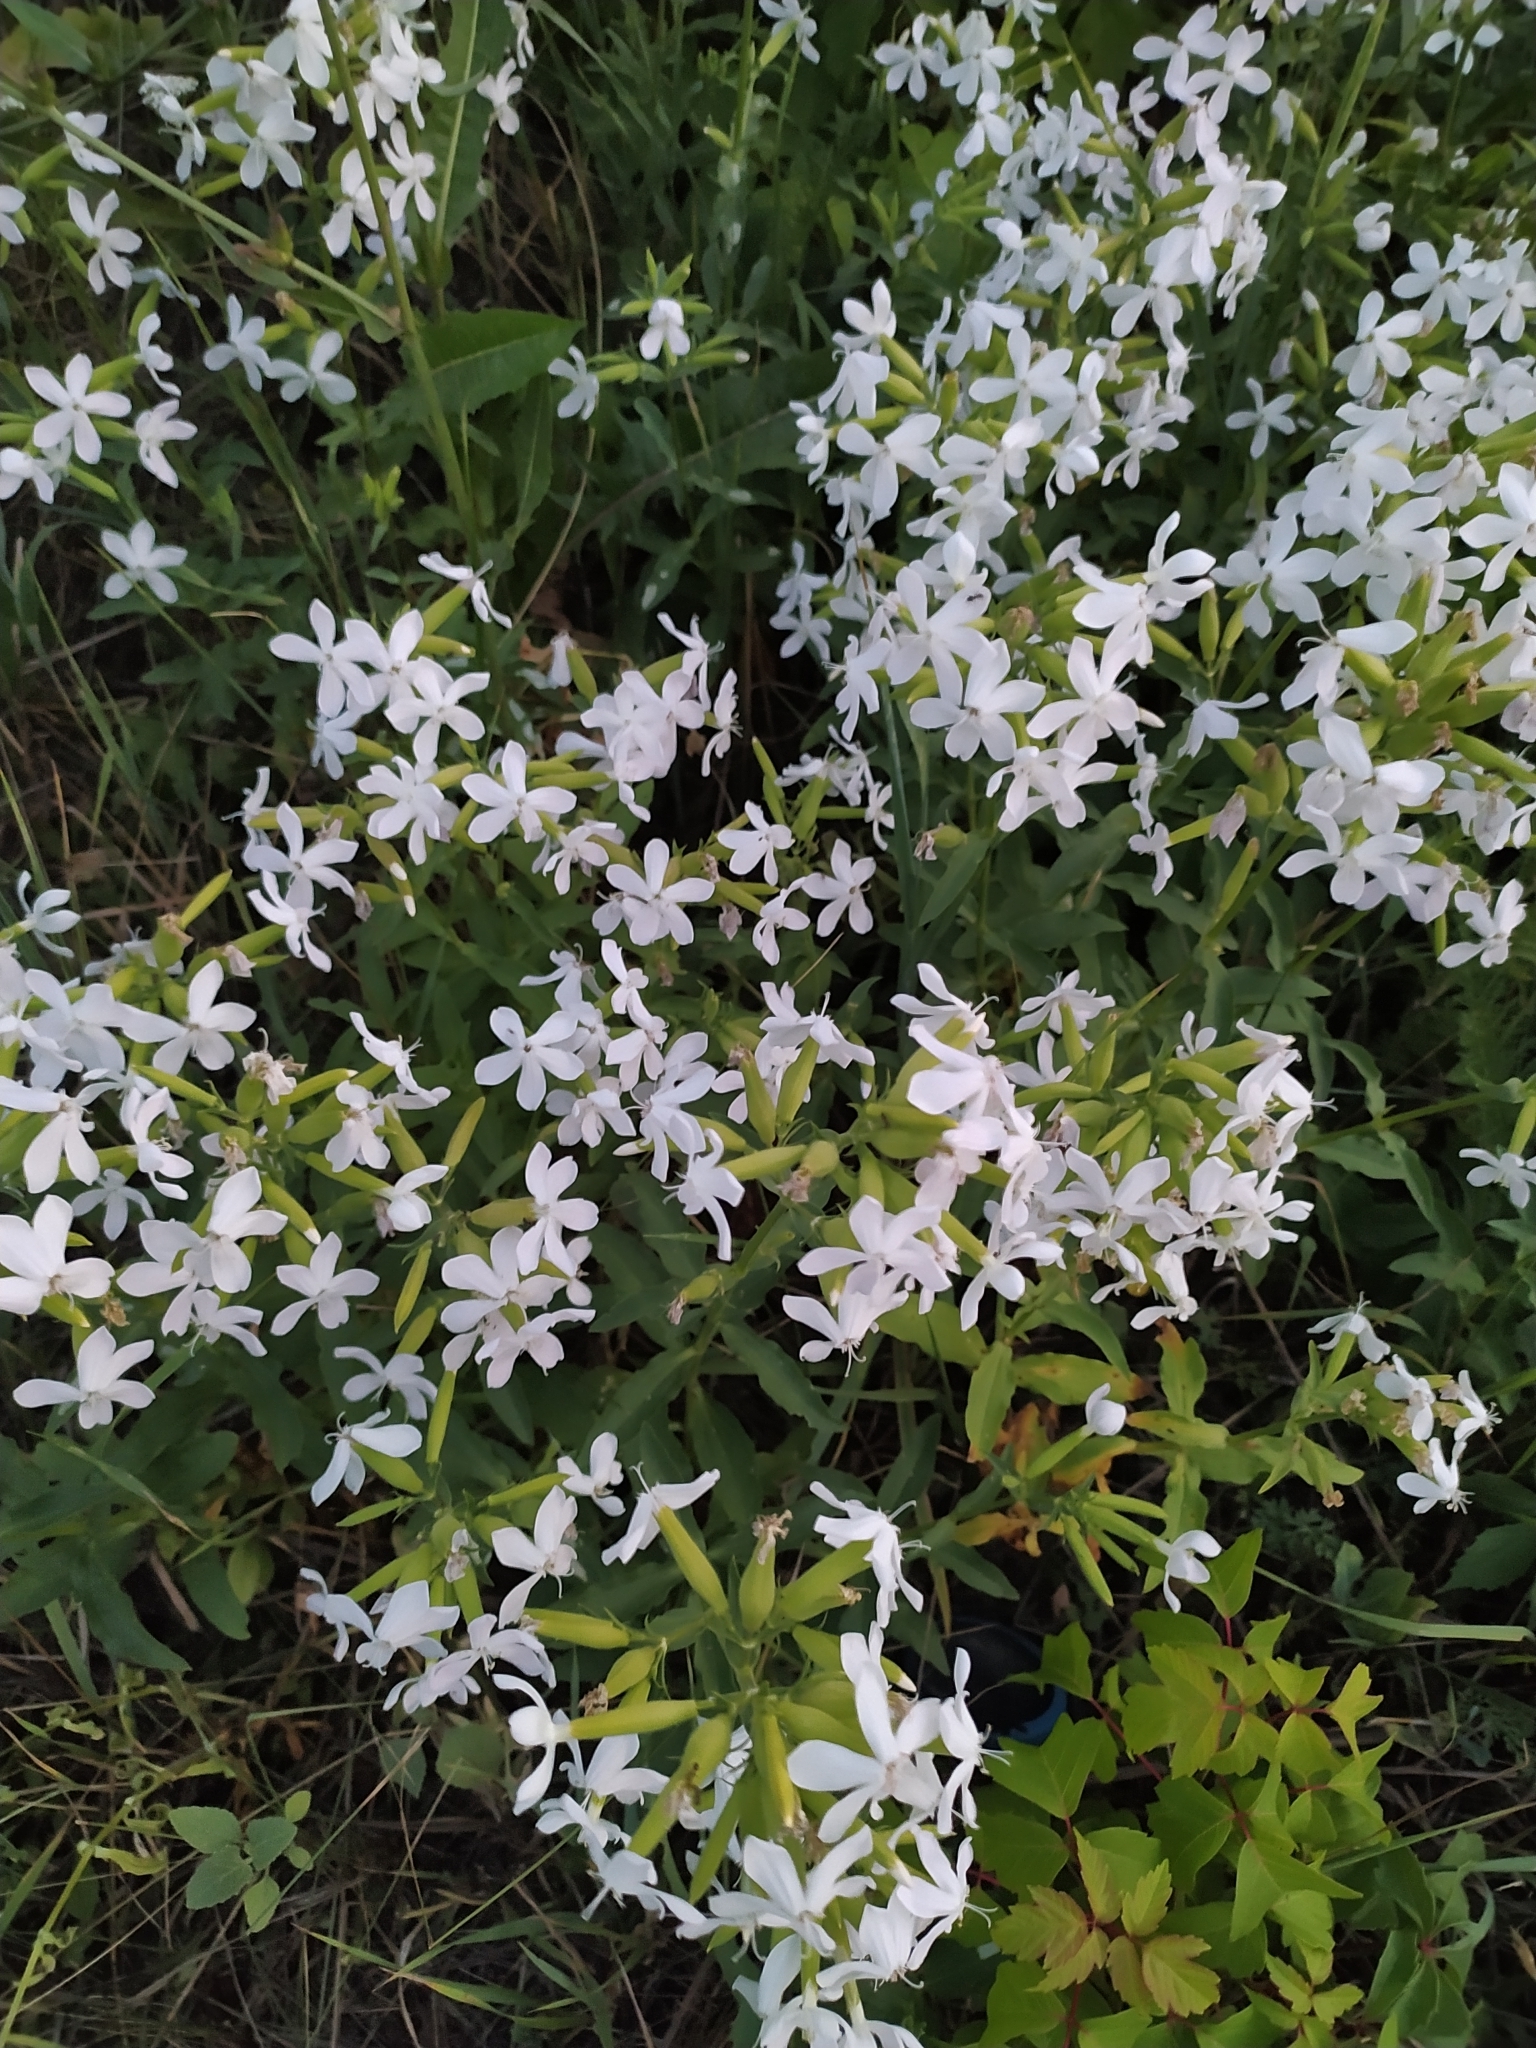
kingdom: Plantae
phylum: Tracheophyta
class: Magnoliopsida
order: Caryophyllales
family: Caryophyllaceae
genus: Saponaria
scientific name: Saponaria officinalis
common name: Soapwort
